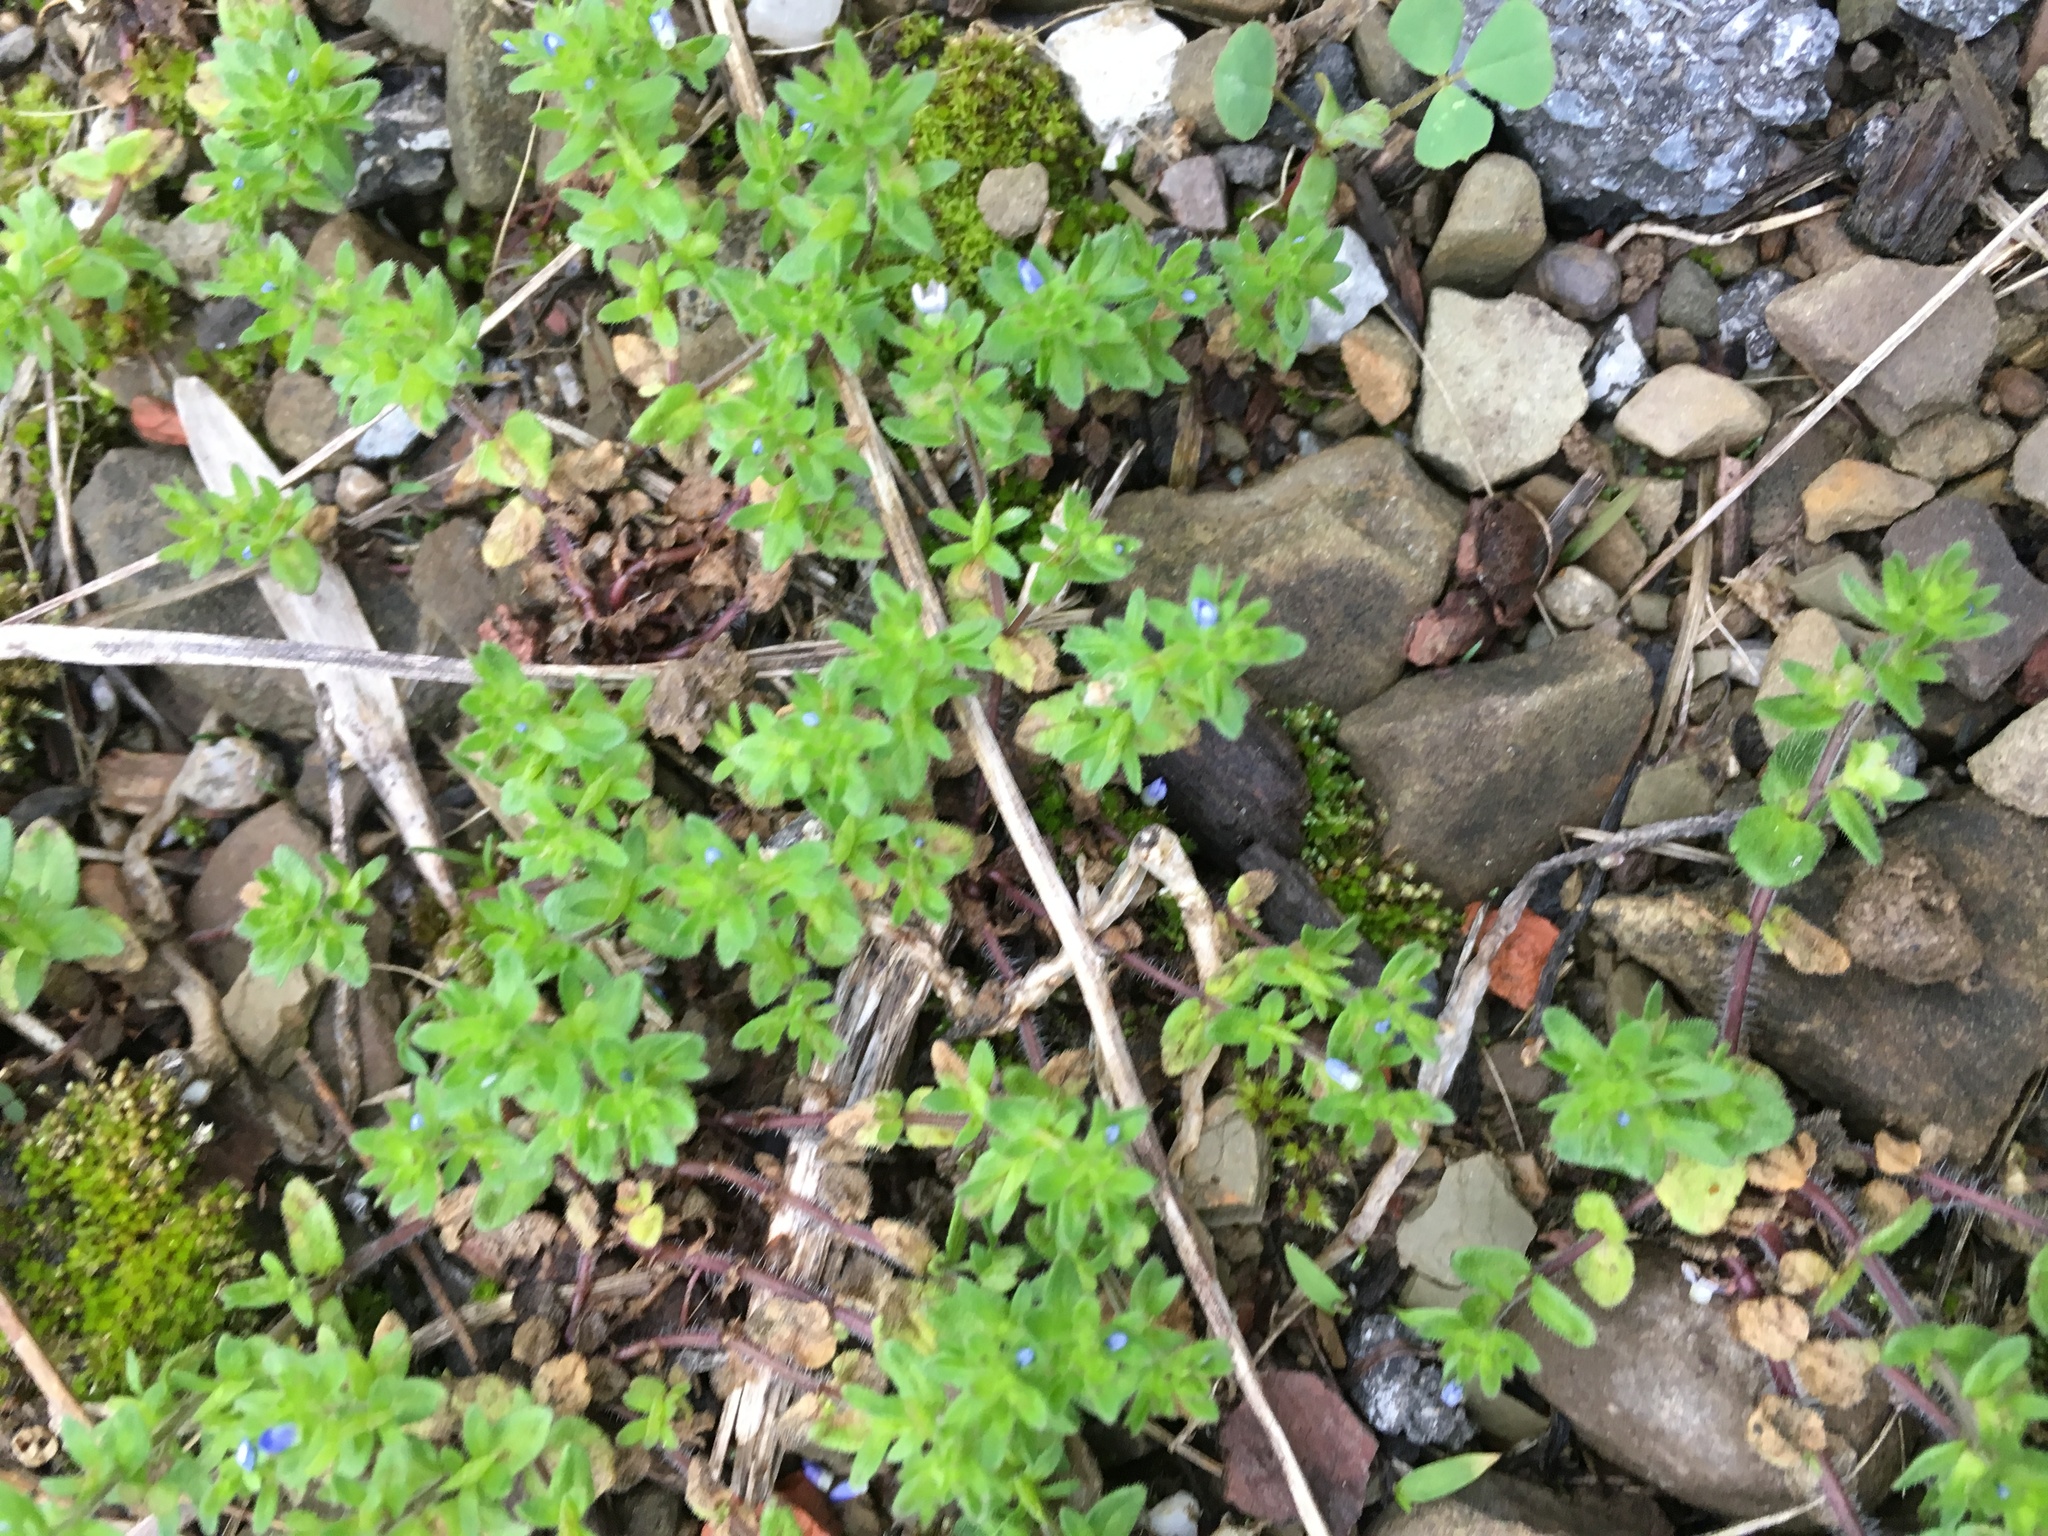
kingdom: Plantae
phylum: Tracheophyta
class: Magnoliopsida
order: Lamiales
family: Plantaginaceae
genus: Veronica
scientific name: Veronica arvensis
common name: Corn speedwell
